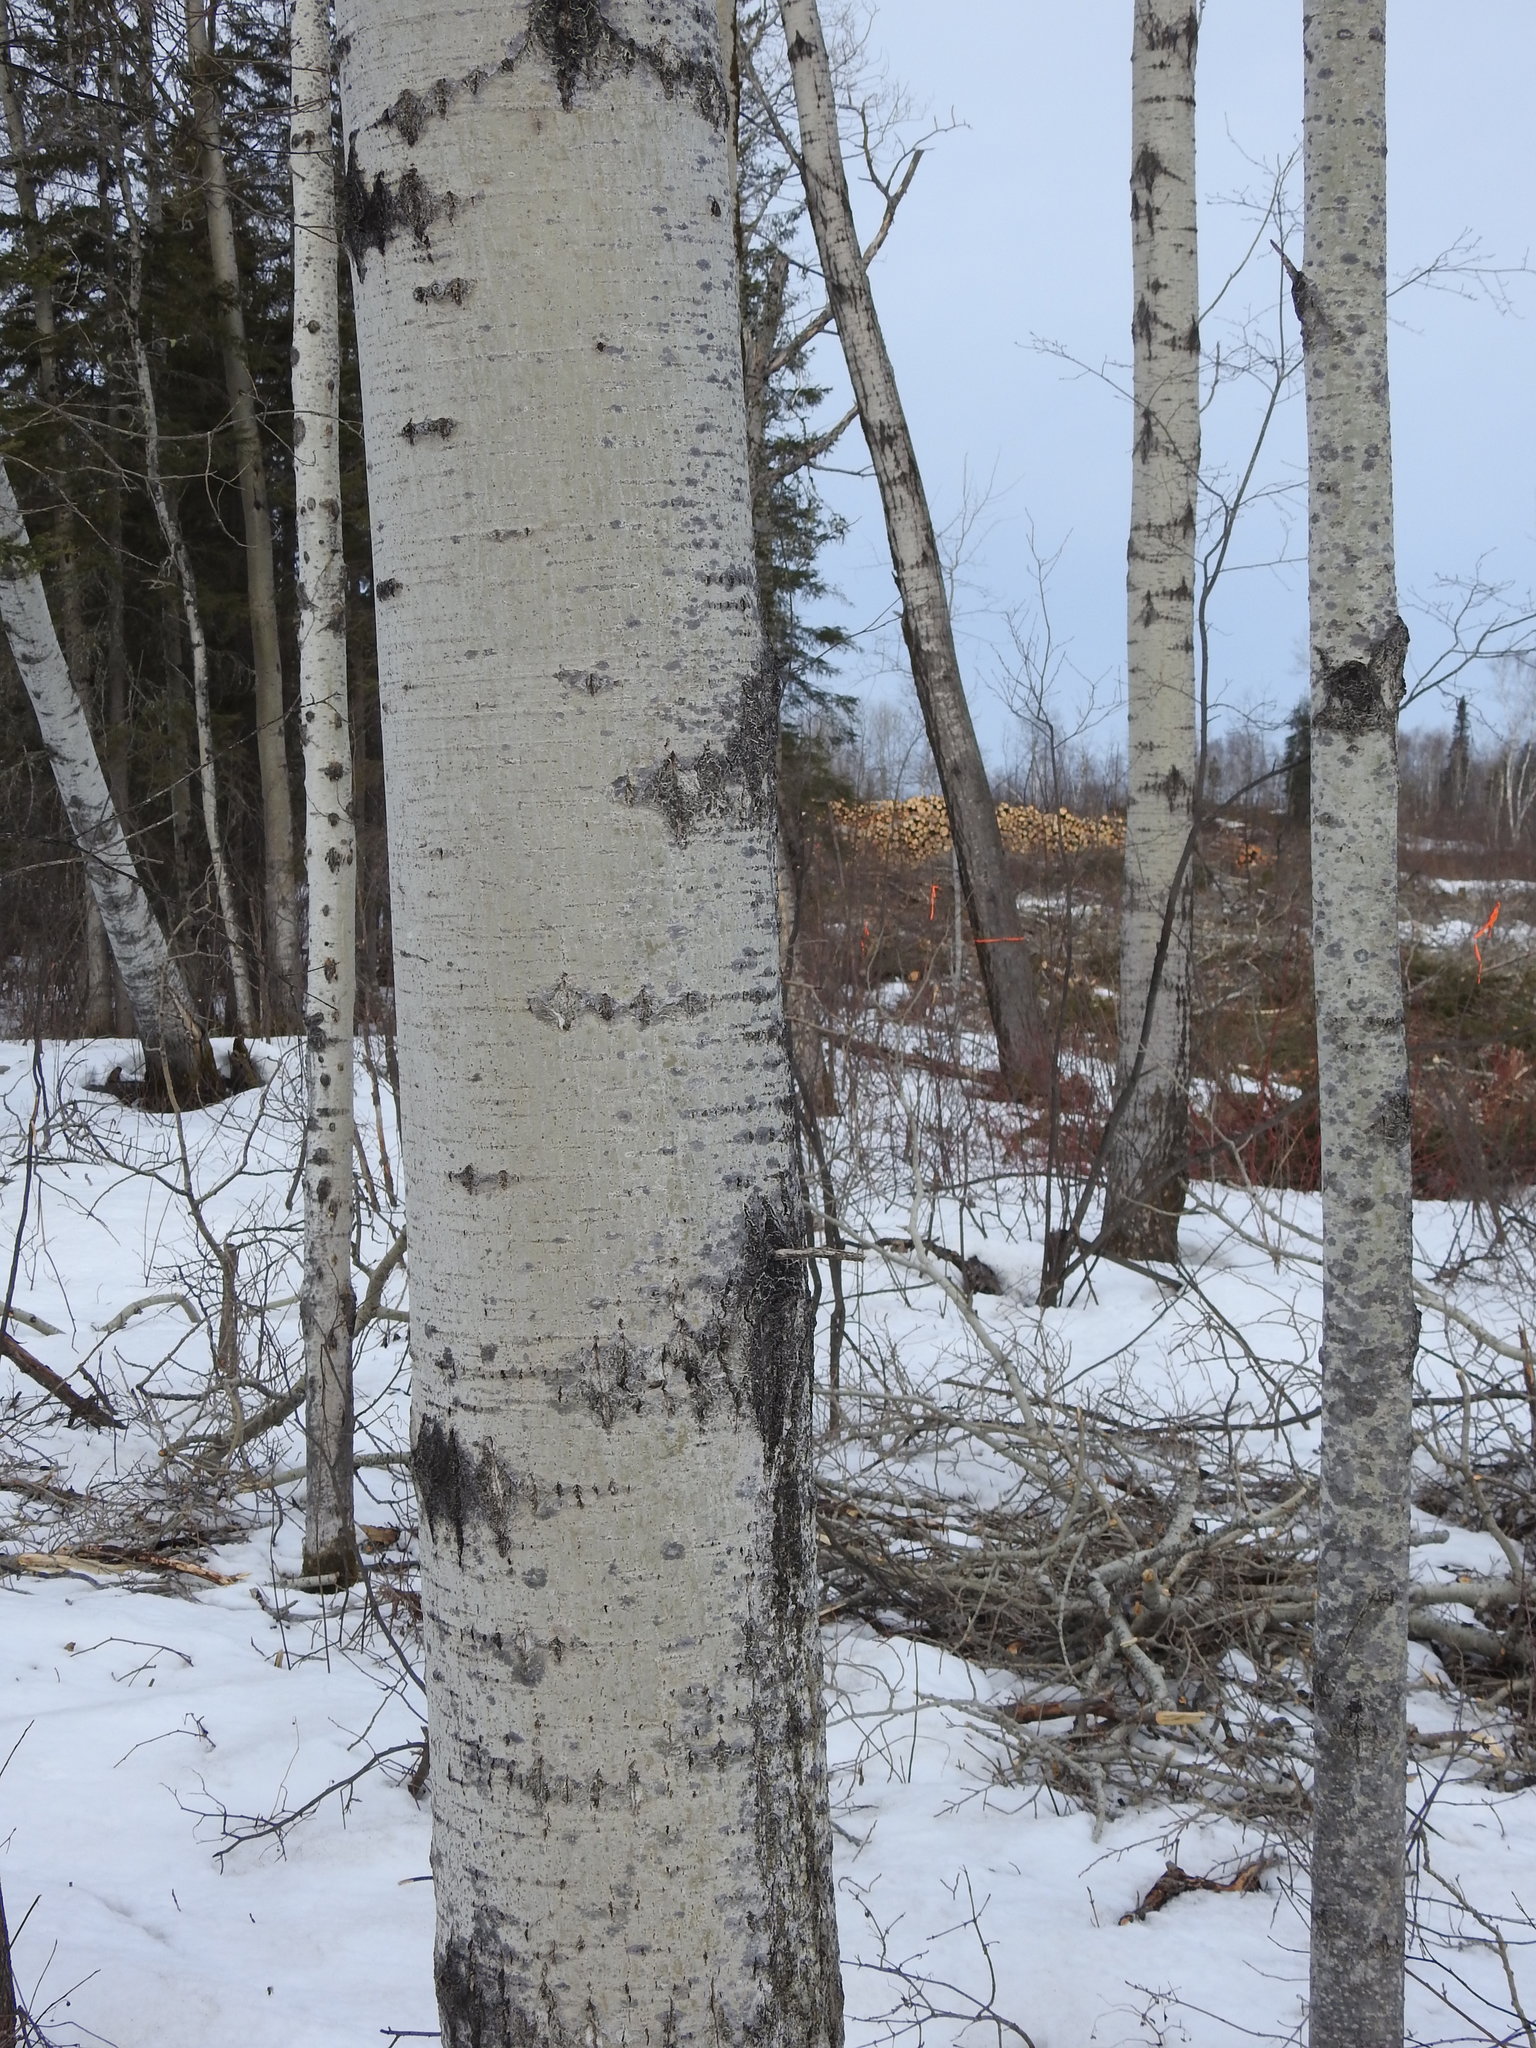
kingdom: Plantae
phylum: Tracheophyta
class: Magnoliopsida
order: Malpighiales
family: Salicaceae
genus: Populus
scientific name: Populus tremuloides
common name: Quaking aspen
